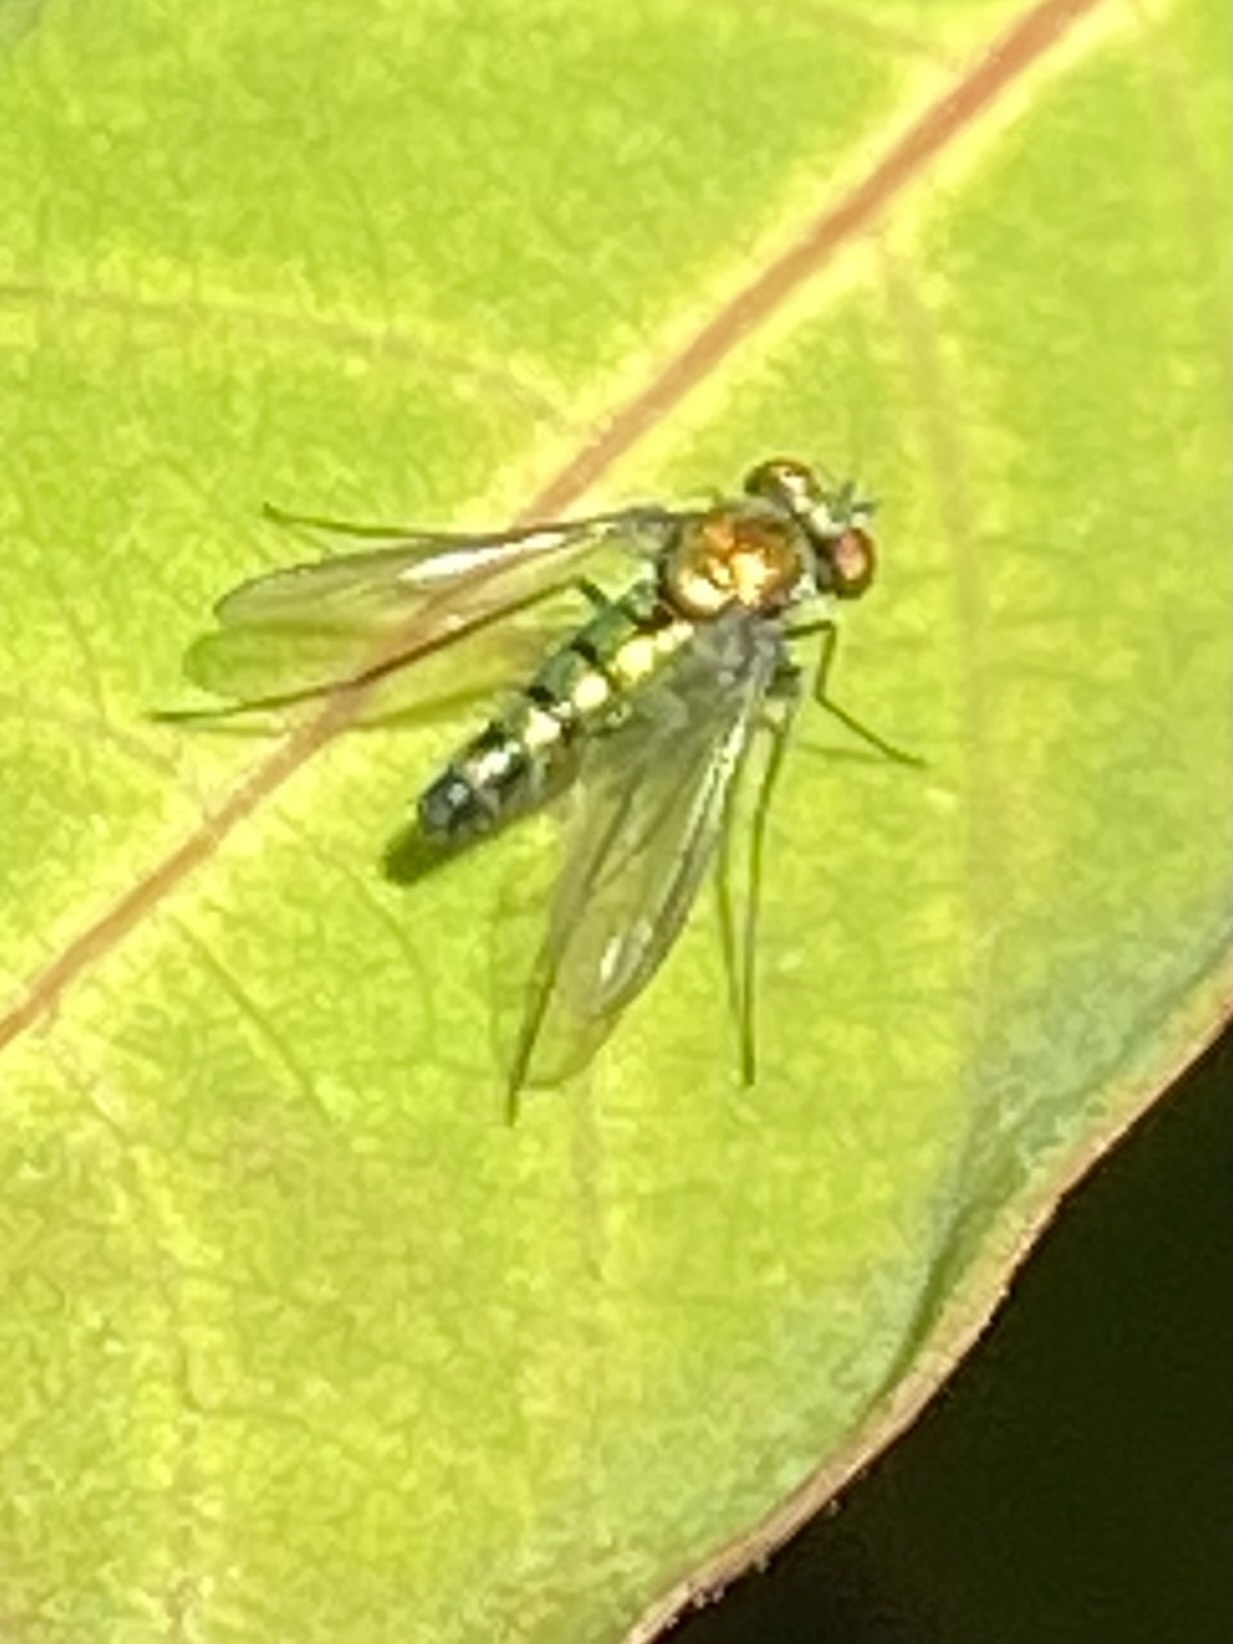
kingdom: Animalia
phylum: Arthropoda
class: Insecta
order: Diptera
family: Dolichopodidae
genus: Condylostylus
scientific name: Condylostylus longicornis
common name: Long-legged fly
